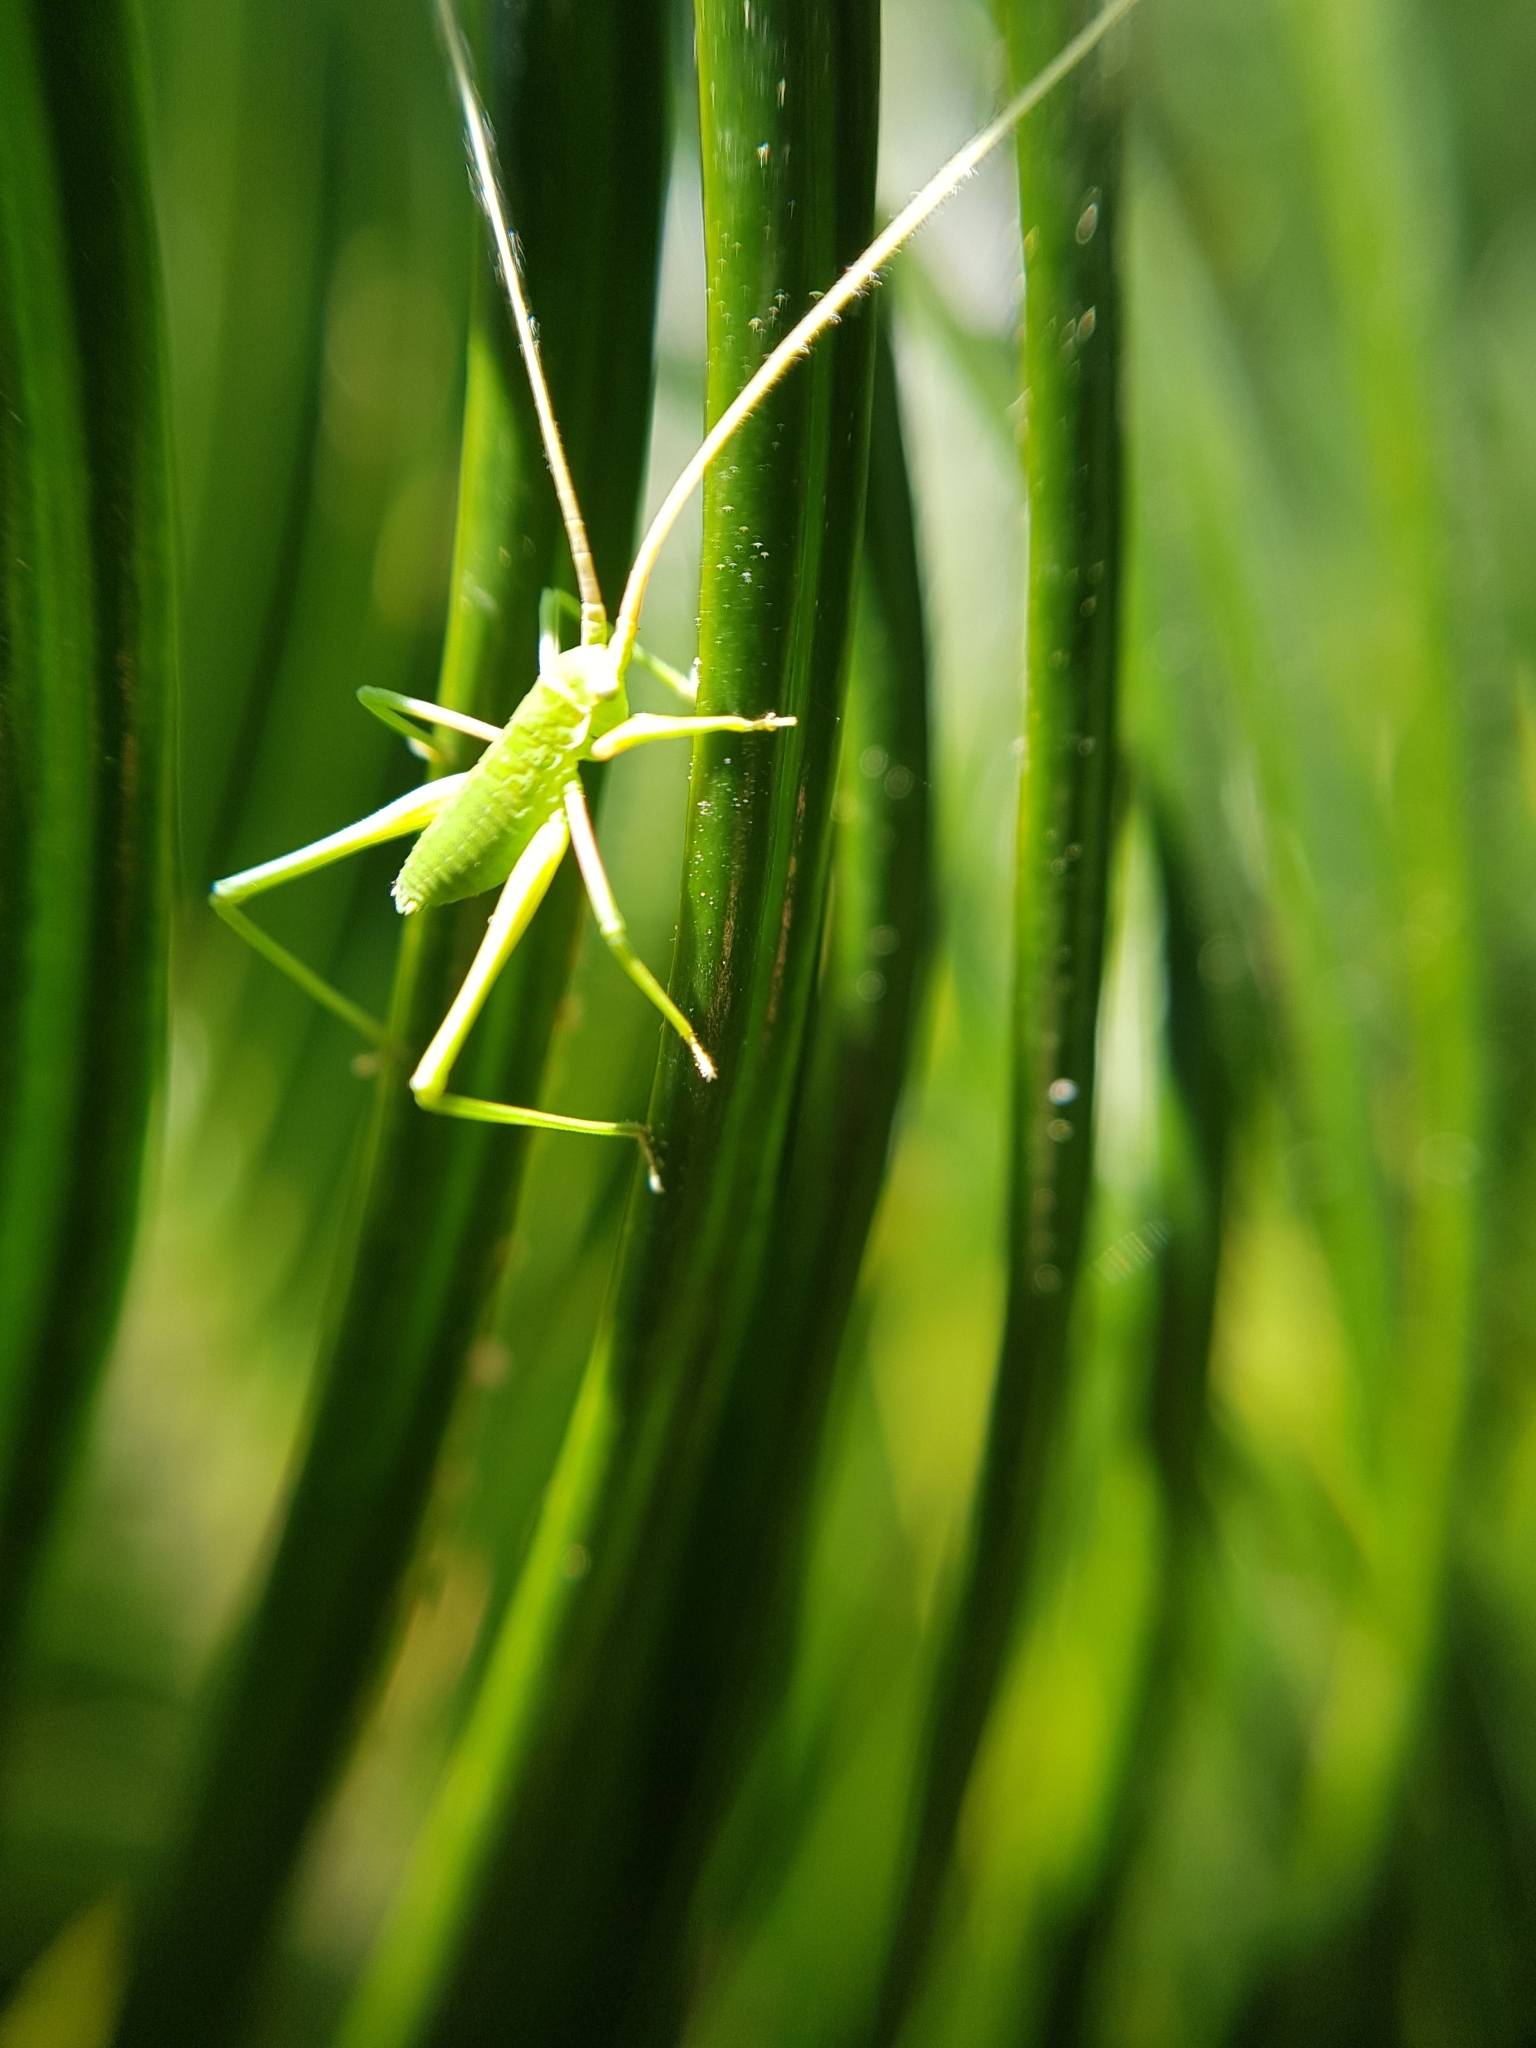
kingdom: Animalia
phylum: Arthropoda
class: Insecta
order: Orthoptera
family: Tettigoniidae
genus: Acrometopa
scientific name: Acrometopa italica
